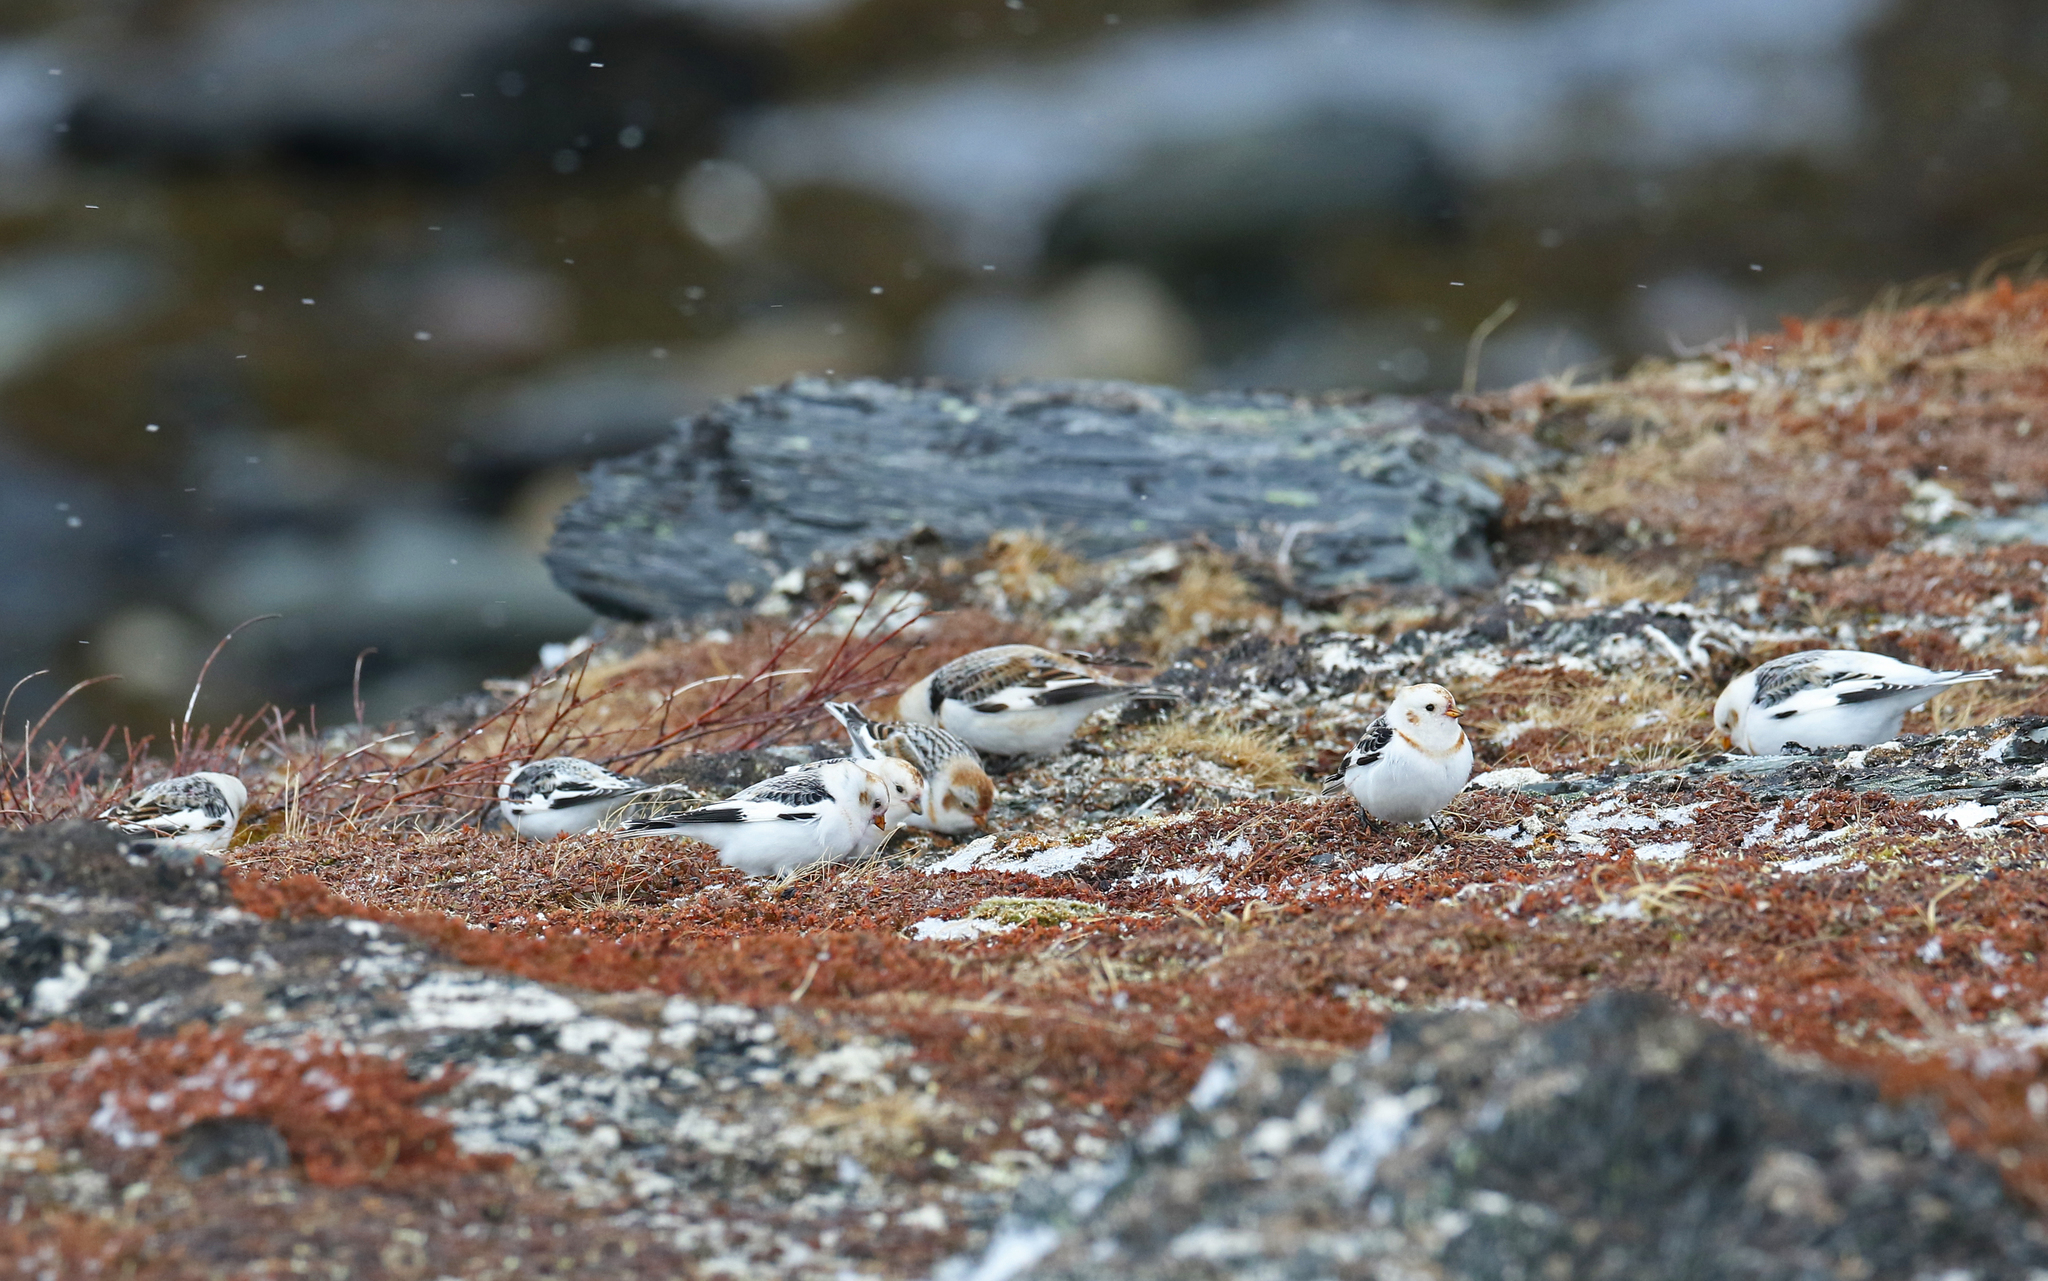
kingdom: Animalia
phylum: Chordata
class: Aves
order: Passeriformes
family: Calcariidae
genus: Plectrophenax
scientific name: Plectrophenax nivalis
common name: Snow bunting
